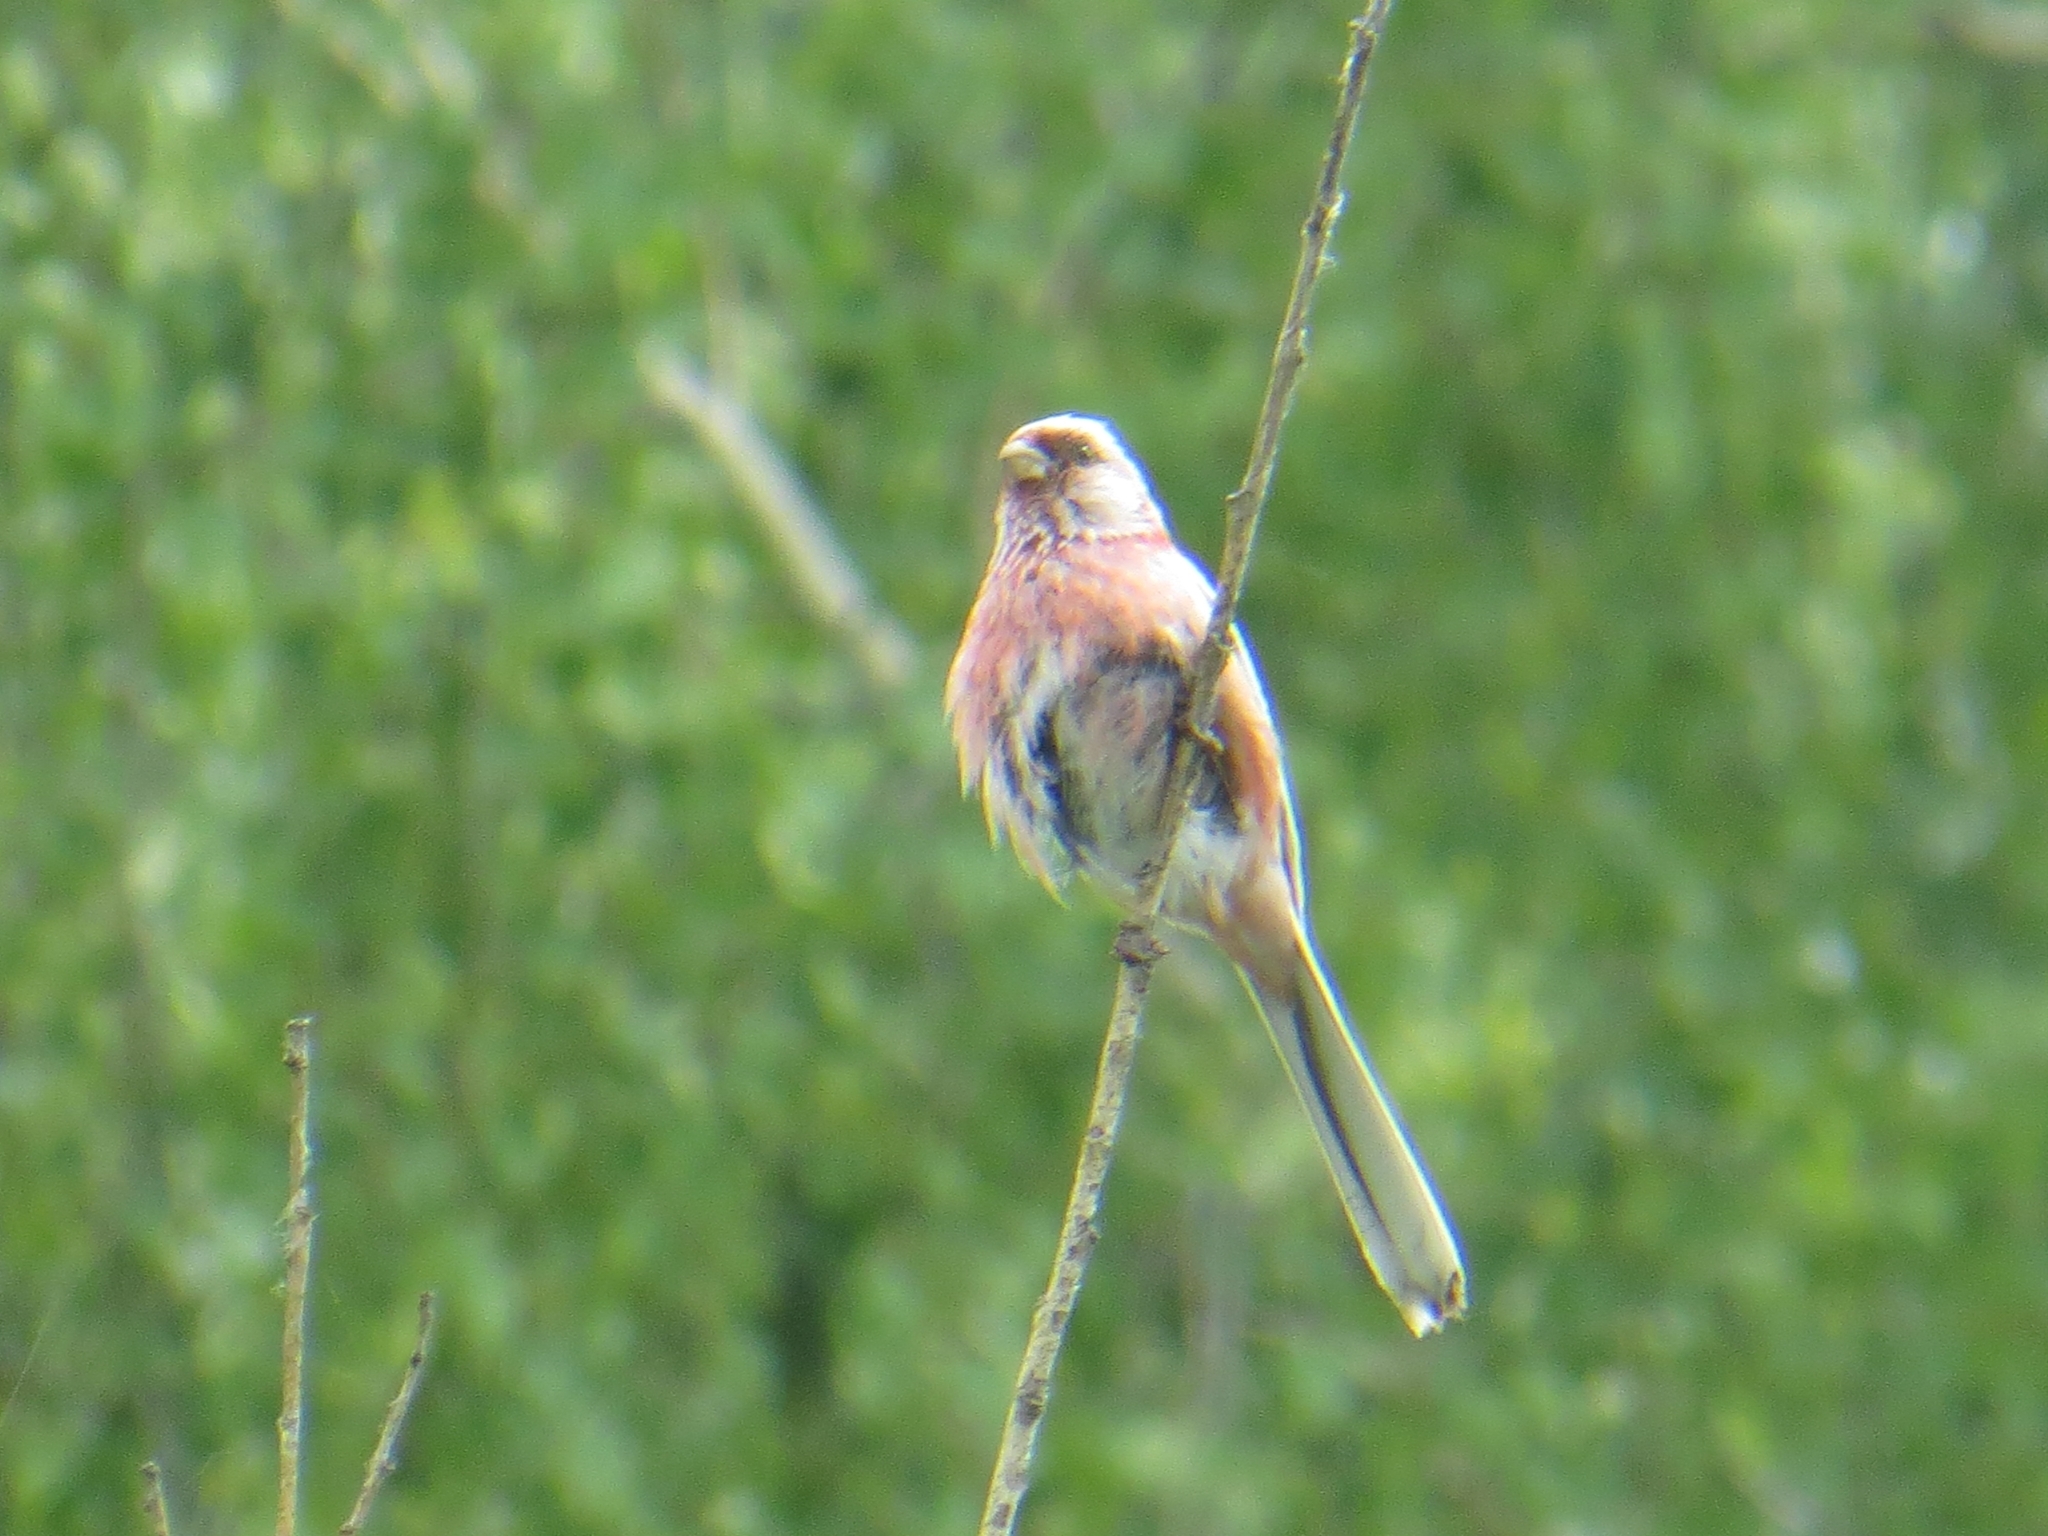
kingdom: Animalia
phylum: Chordata
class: Aves
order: Passeriformes
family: Fringillidae
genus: Carpodacus
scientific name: Carpodacus sibiricus
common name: Long-tailed rosefinch
